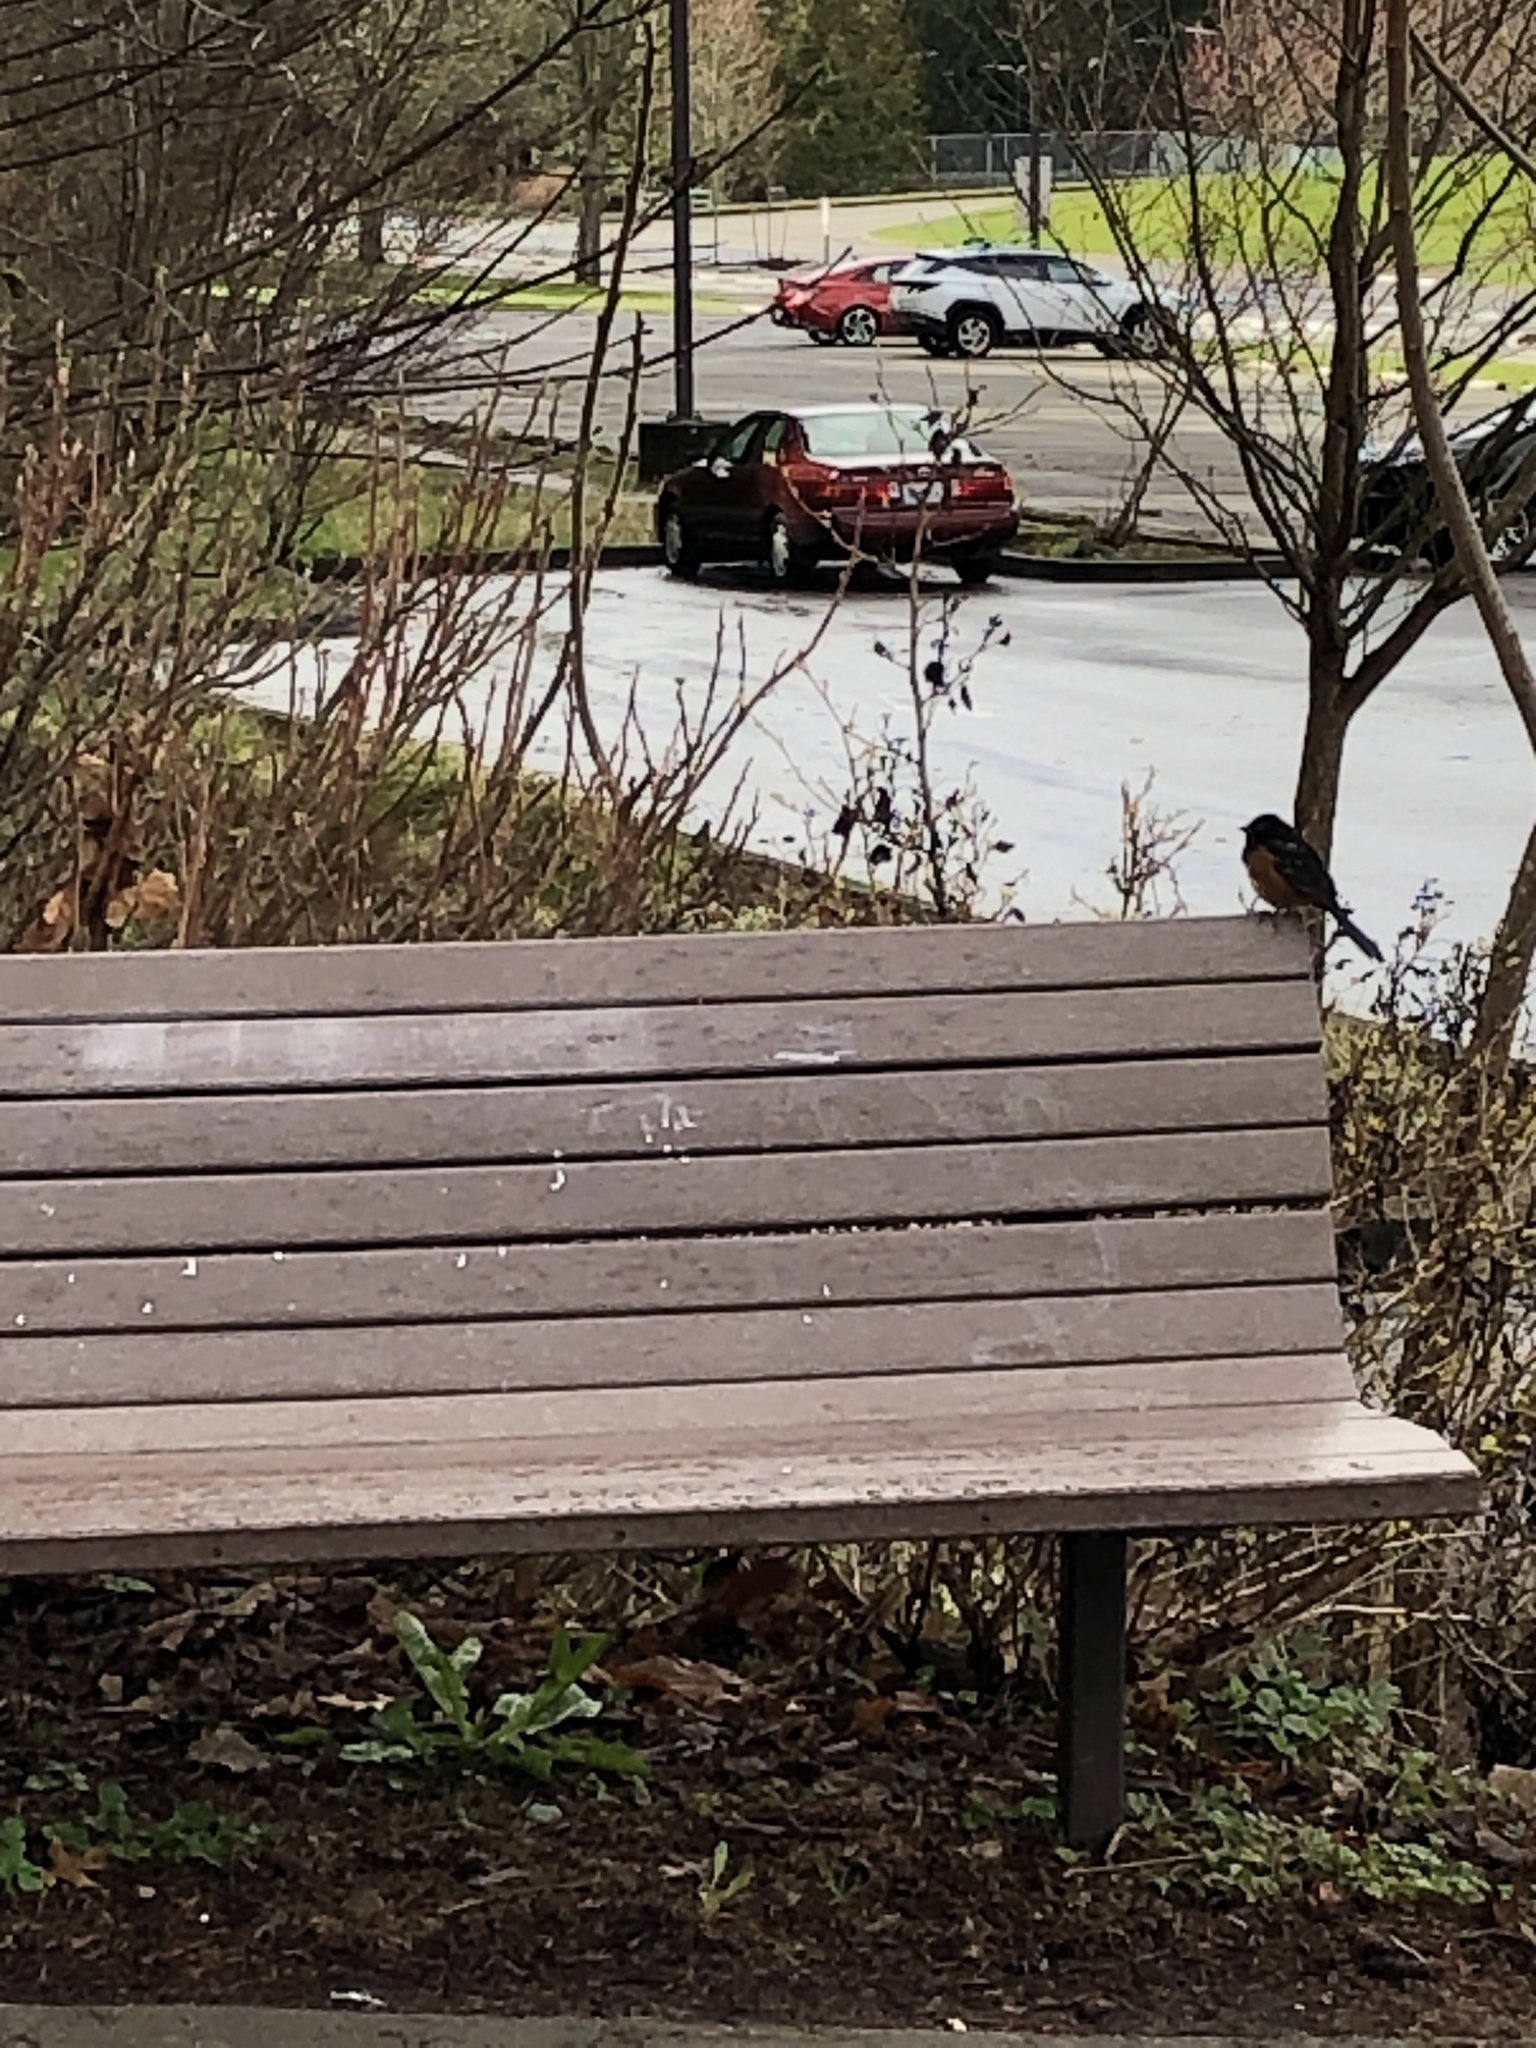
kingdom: Animalia
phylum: Chordata
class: Aves
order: Passeriformes
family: Passerellidae
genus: Pipilo
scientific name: Pipilo maculatus
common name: Spotted towhee
